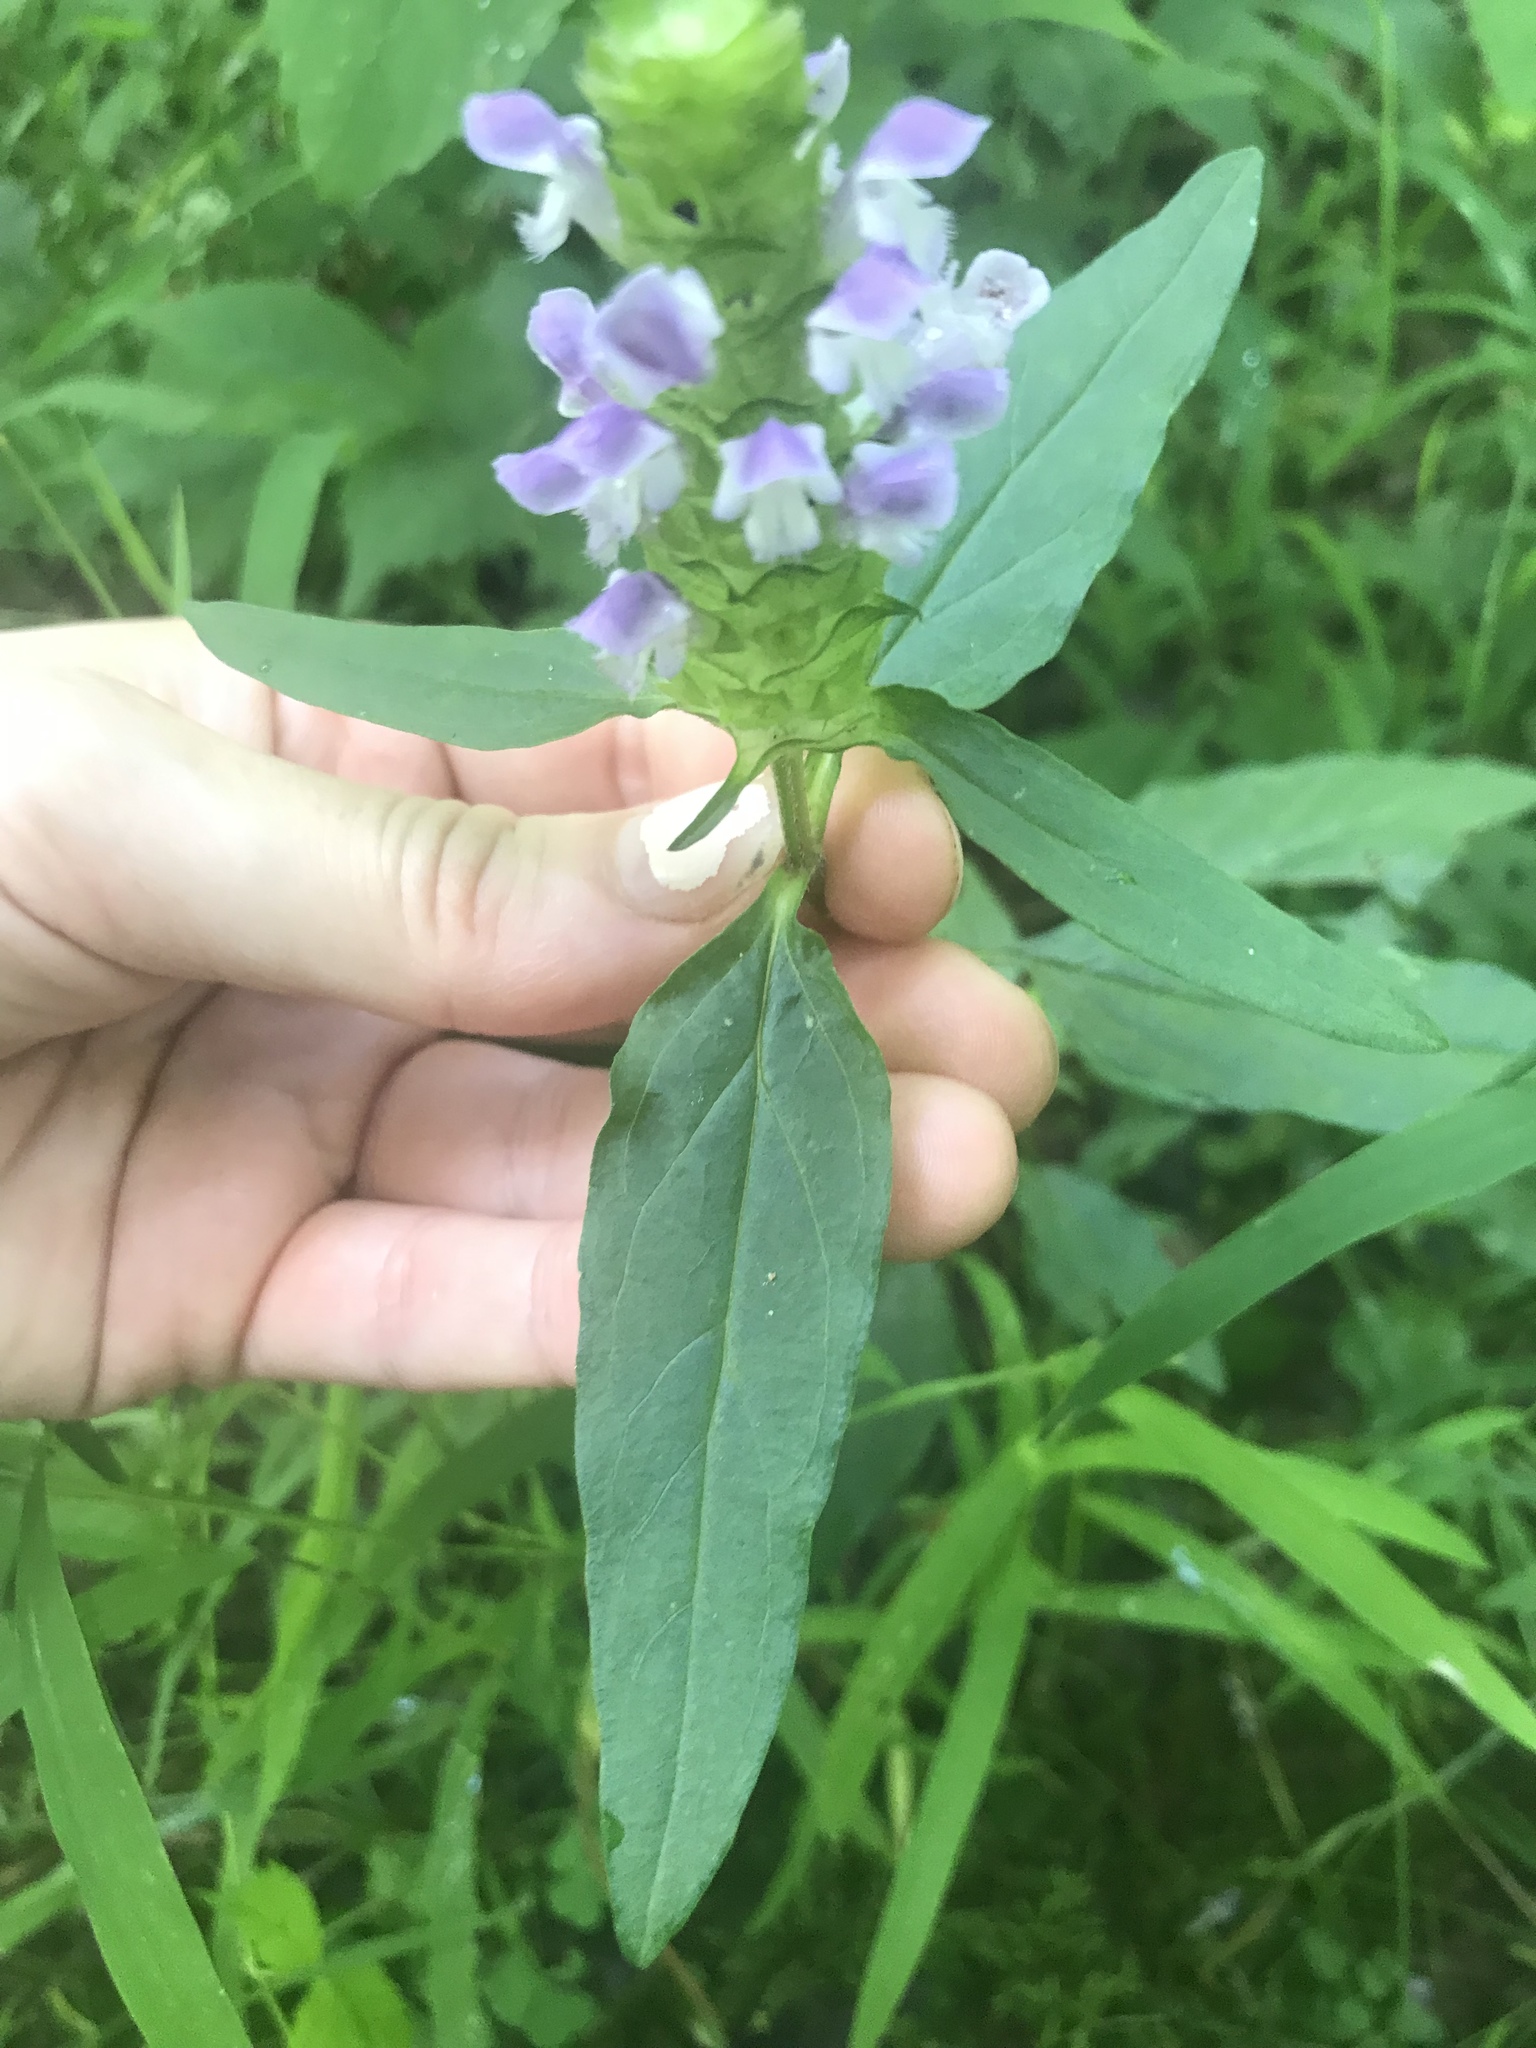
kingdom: Plantae
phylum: Tracheophyta
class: Magnoliopsida
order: Lamiales
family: Lamiaceae
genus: Prunella
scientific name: Prunella vulgaris
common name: Heal-all
